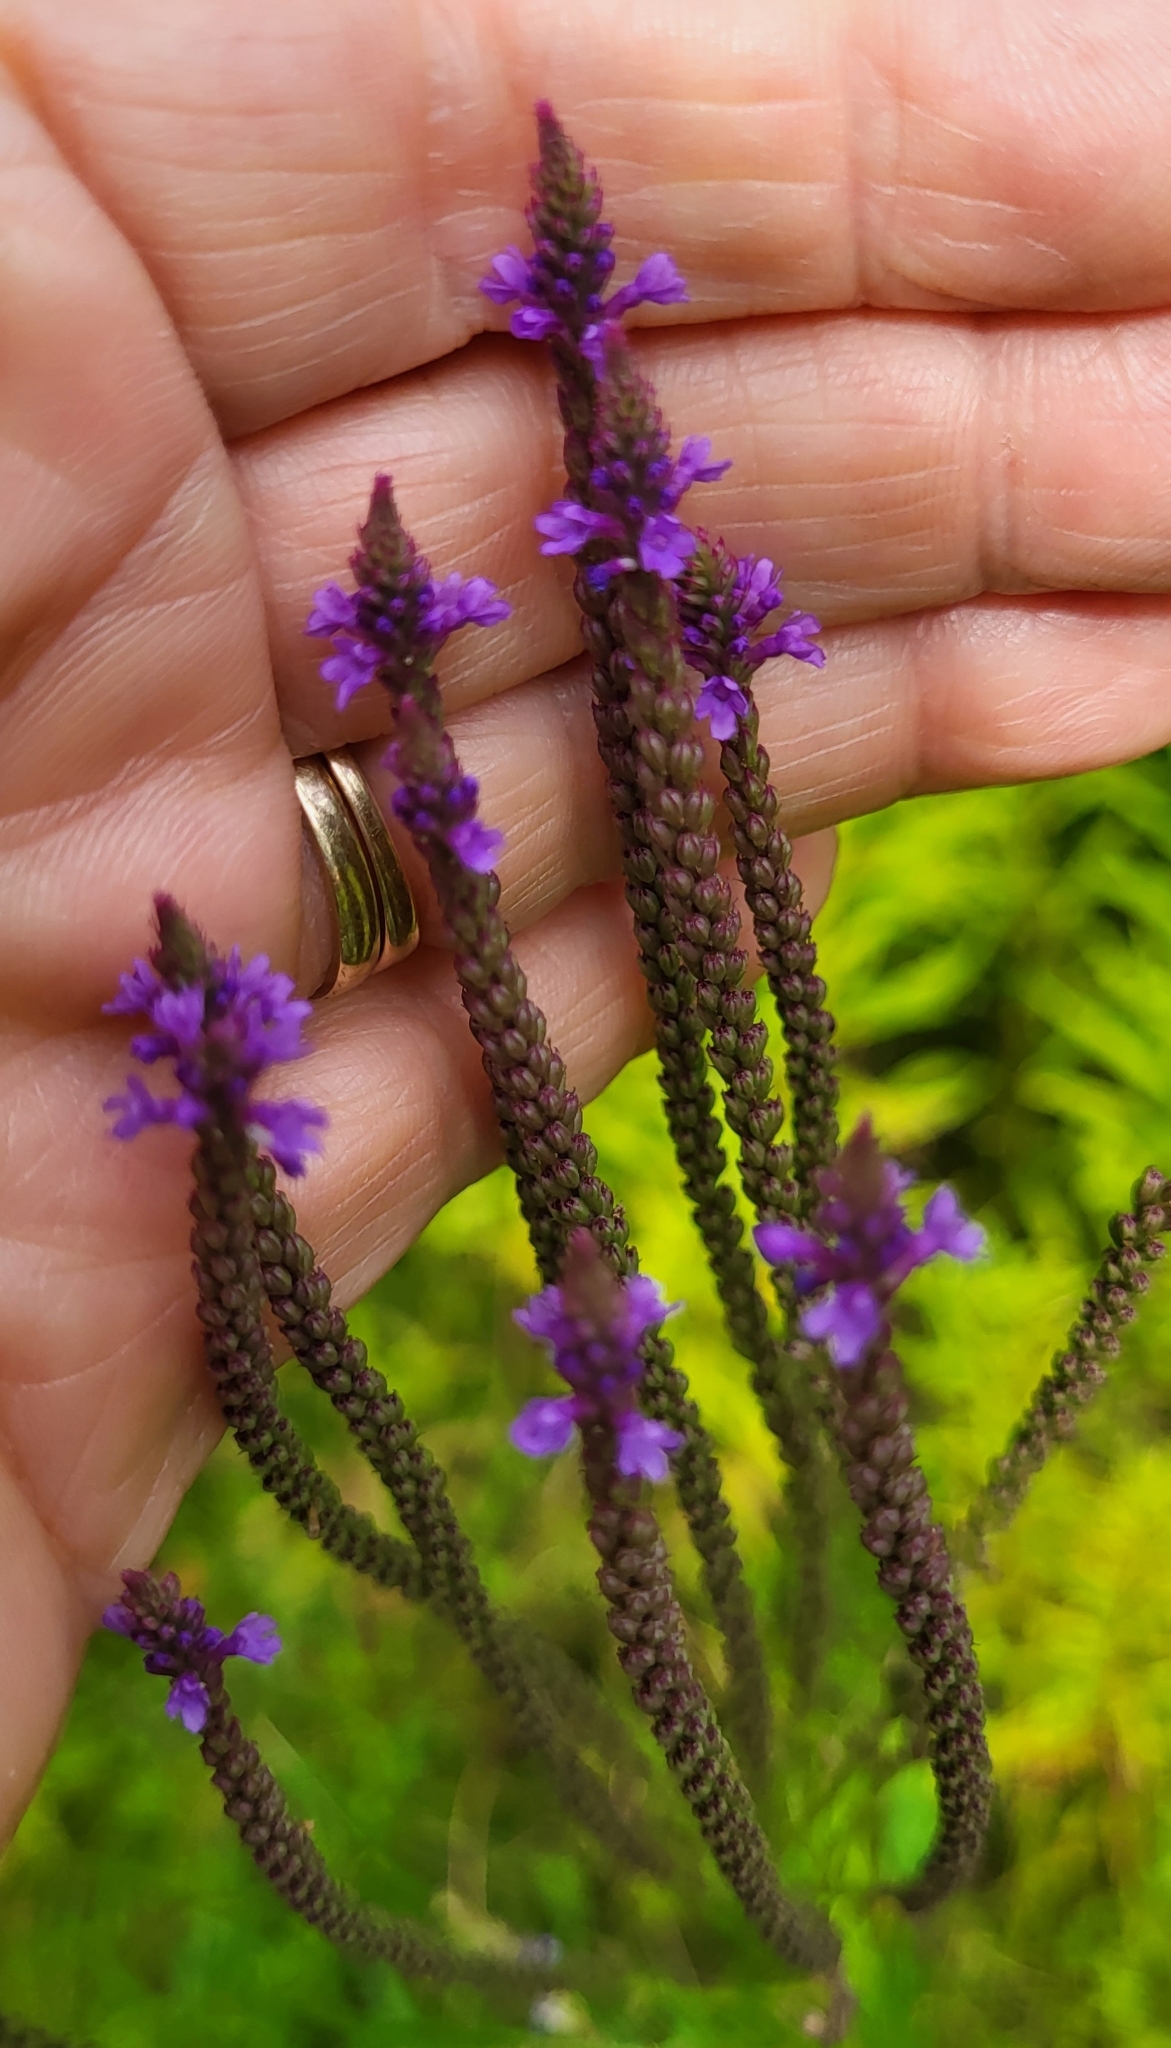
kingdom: Plantae
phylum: Tracheophyta
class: Magnoliopsida
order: Lamiales
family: Verbenaceae
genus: Verbena
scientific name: Verbena hastata
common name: American blue vervain
